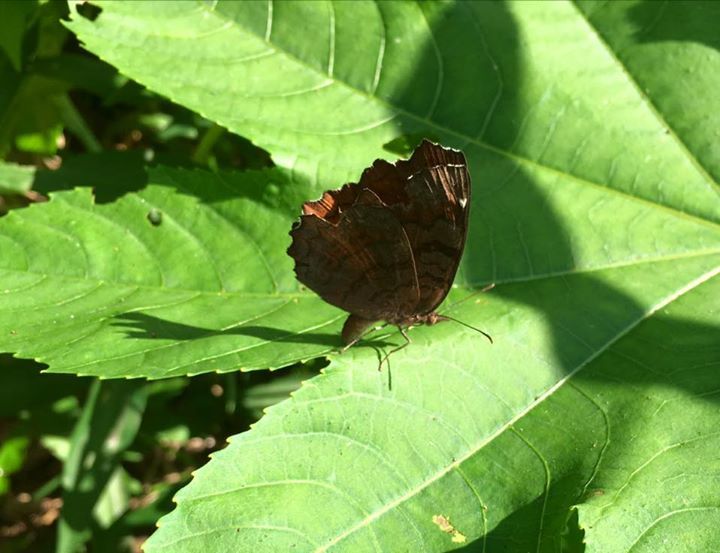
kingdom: Animalia
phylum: Arthropoda
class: Insecta
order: Lepidoptera
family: Nymphalidae
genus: Ariadne
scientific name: Ariadne ariadne
